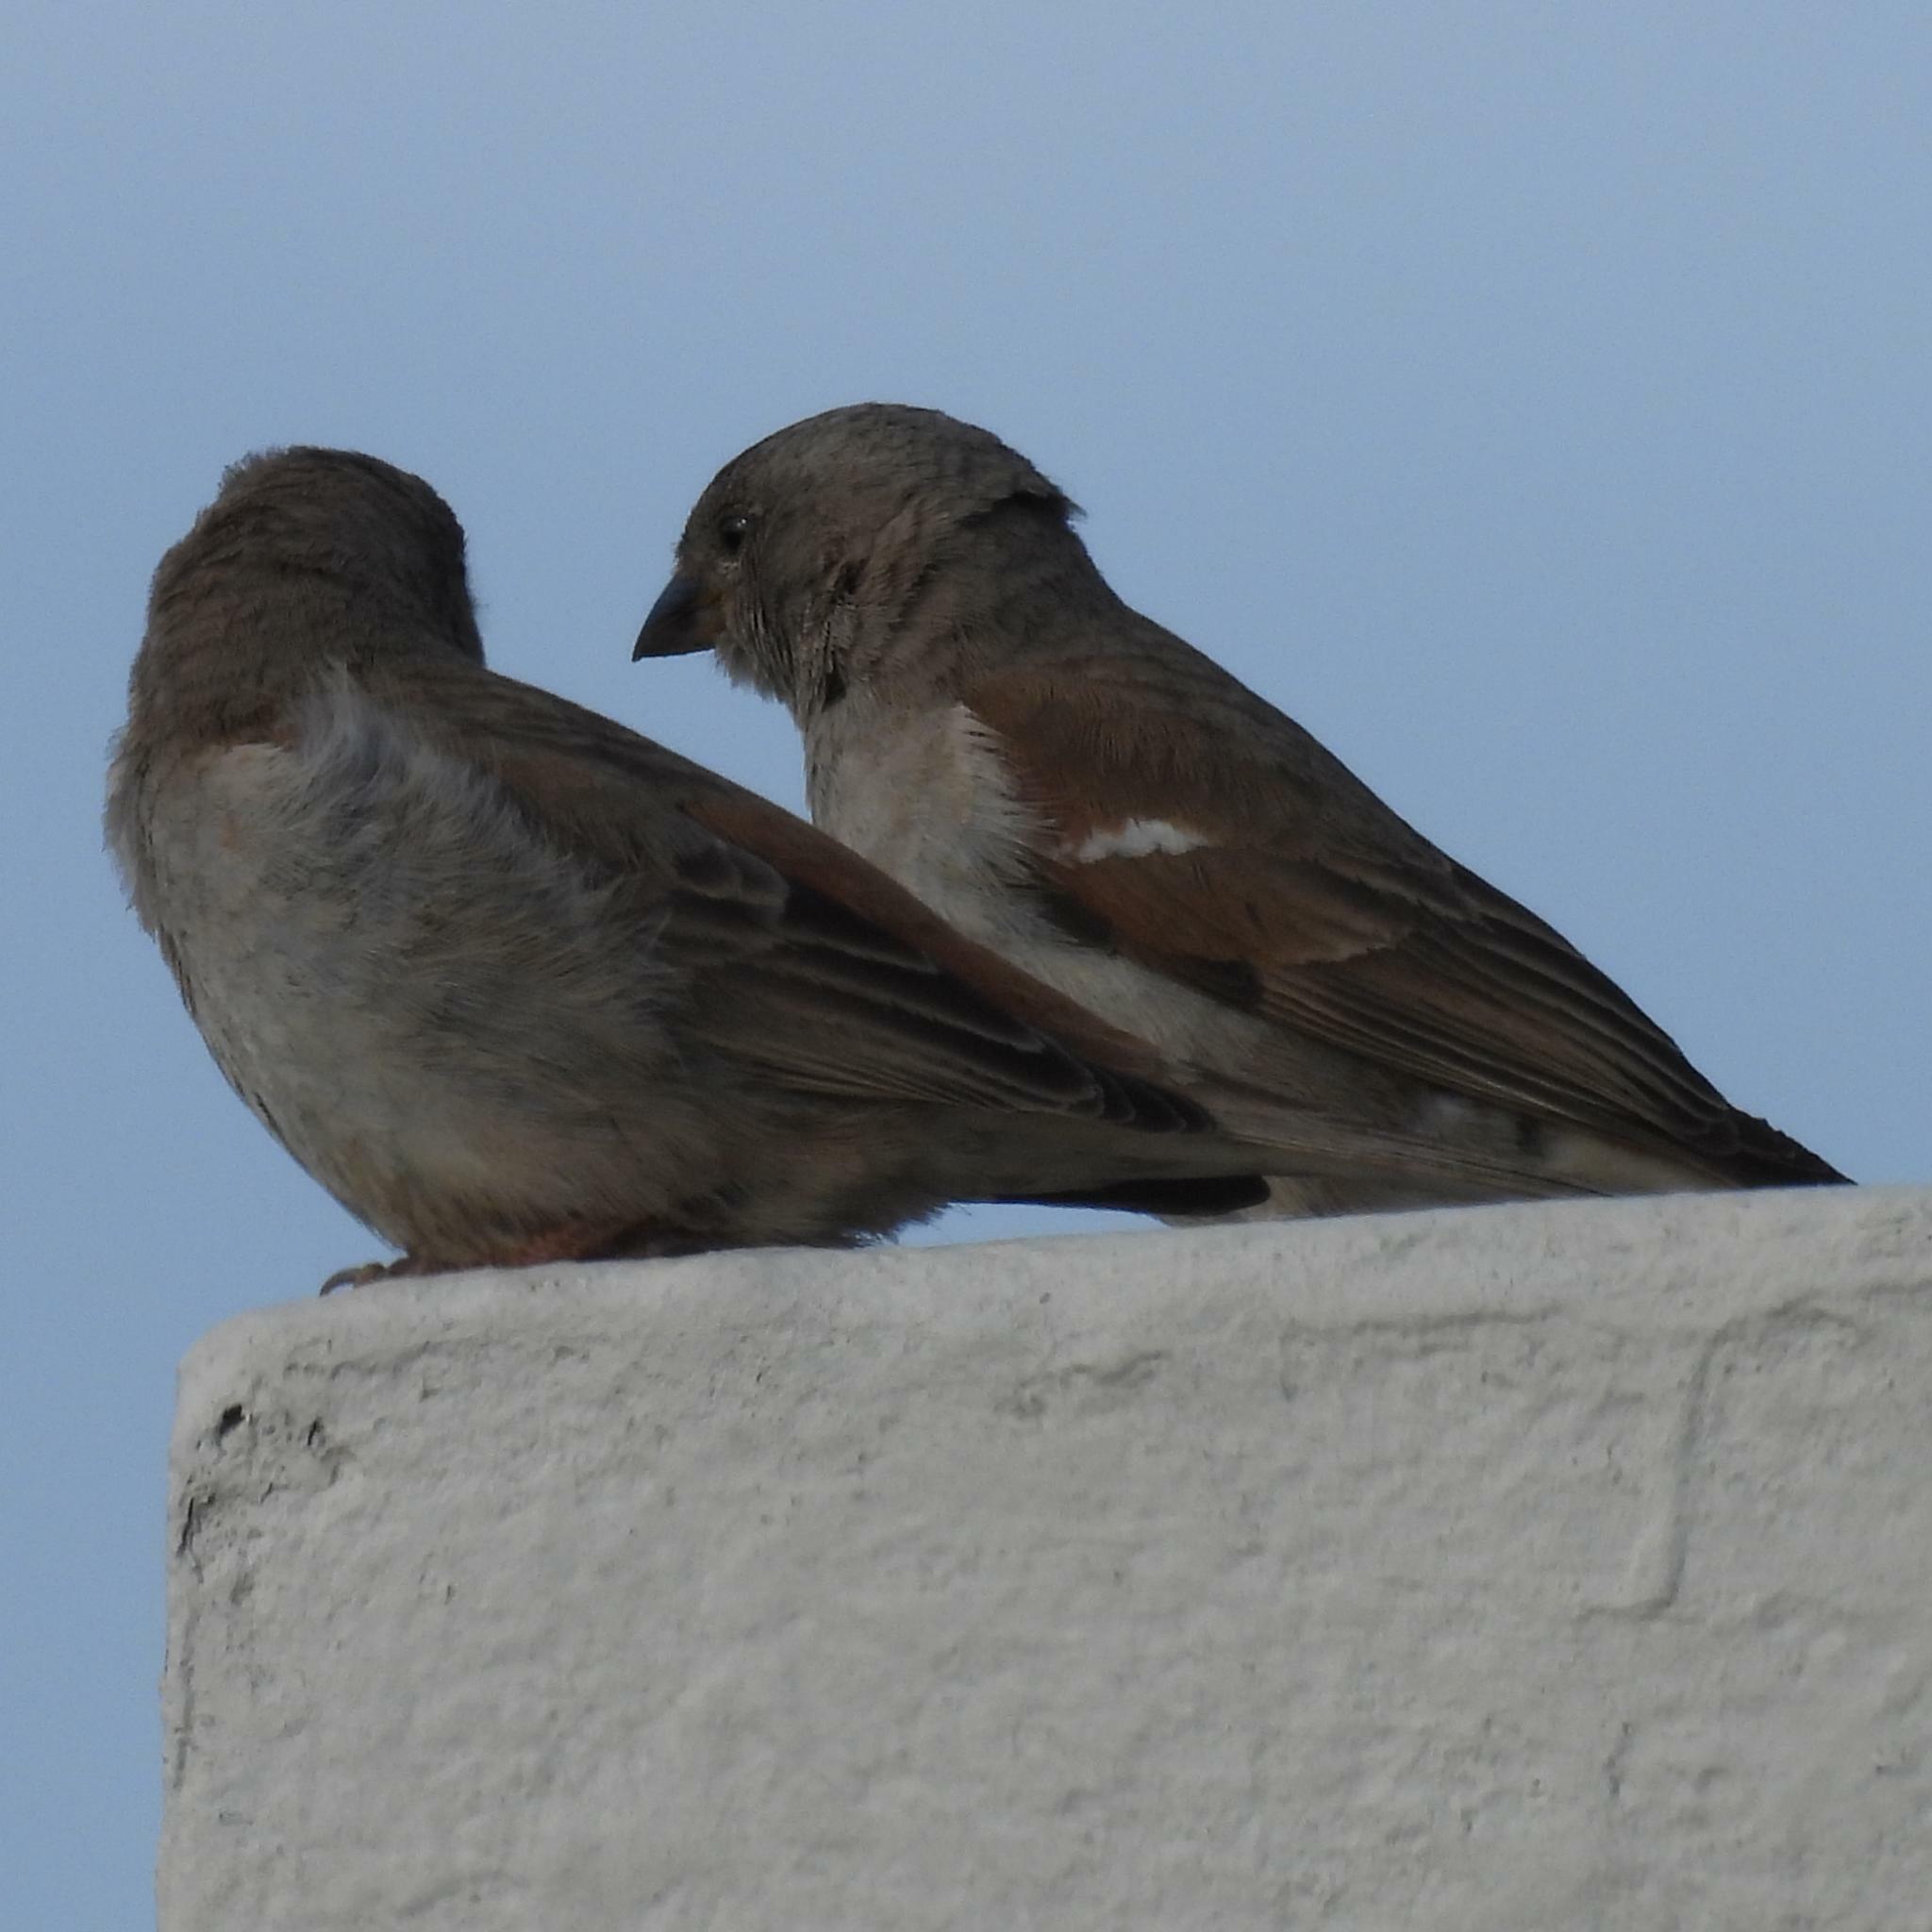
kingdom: Animalia
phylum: Chordata
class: Aves
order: Passeriformes
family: Passeridae
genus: Passer
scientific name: Passer diffusus
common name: Southern grey-headed sparrow
